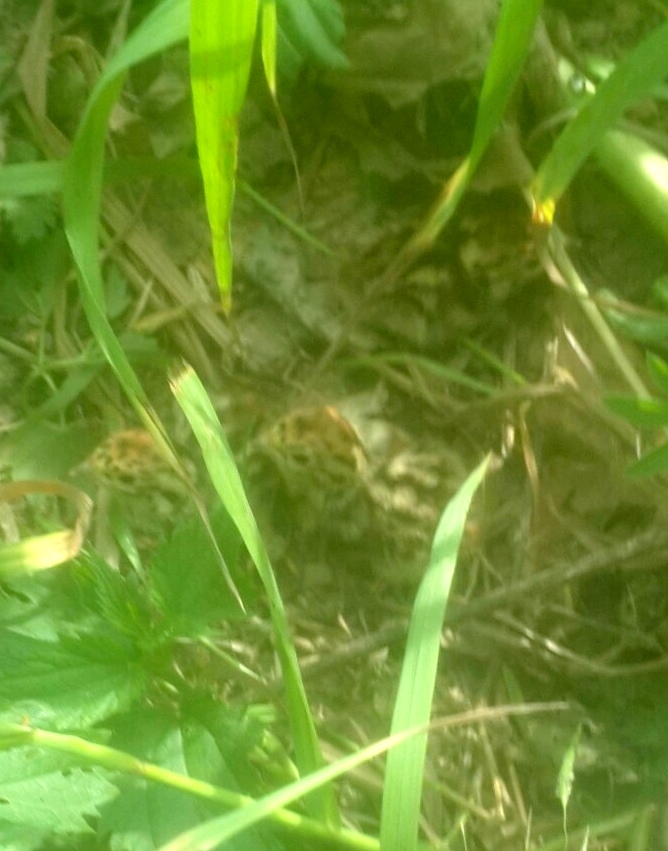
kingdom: Animalia
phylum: Chordata
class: Aves
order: Galliformes
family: Phasianidae
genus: Perdix
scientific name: Perdix perdix
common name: Grey partridge
